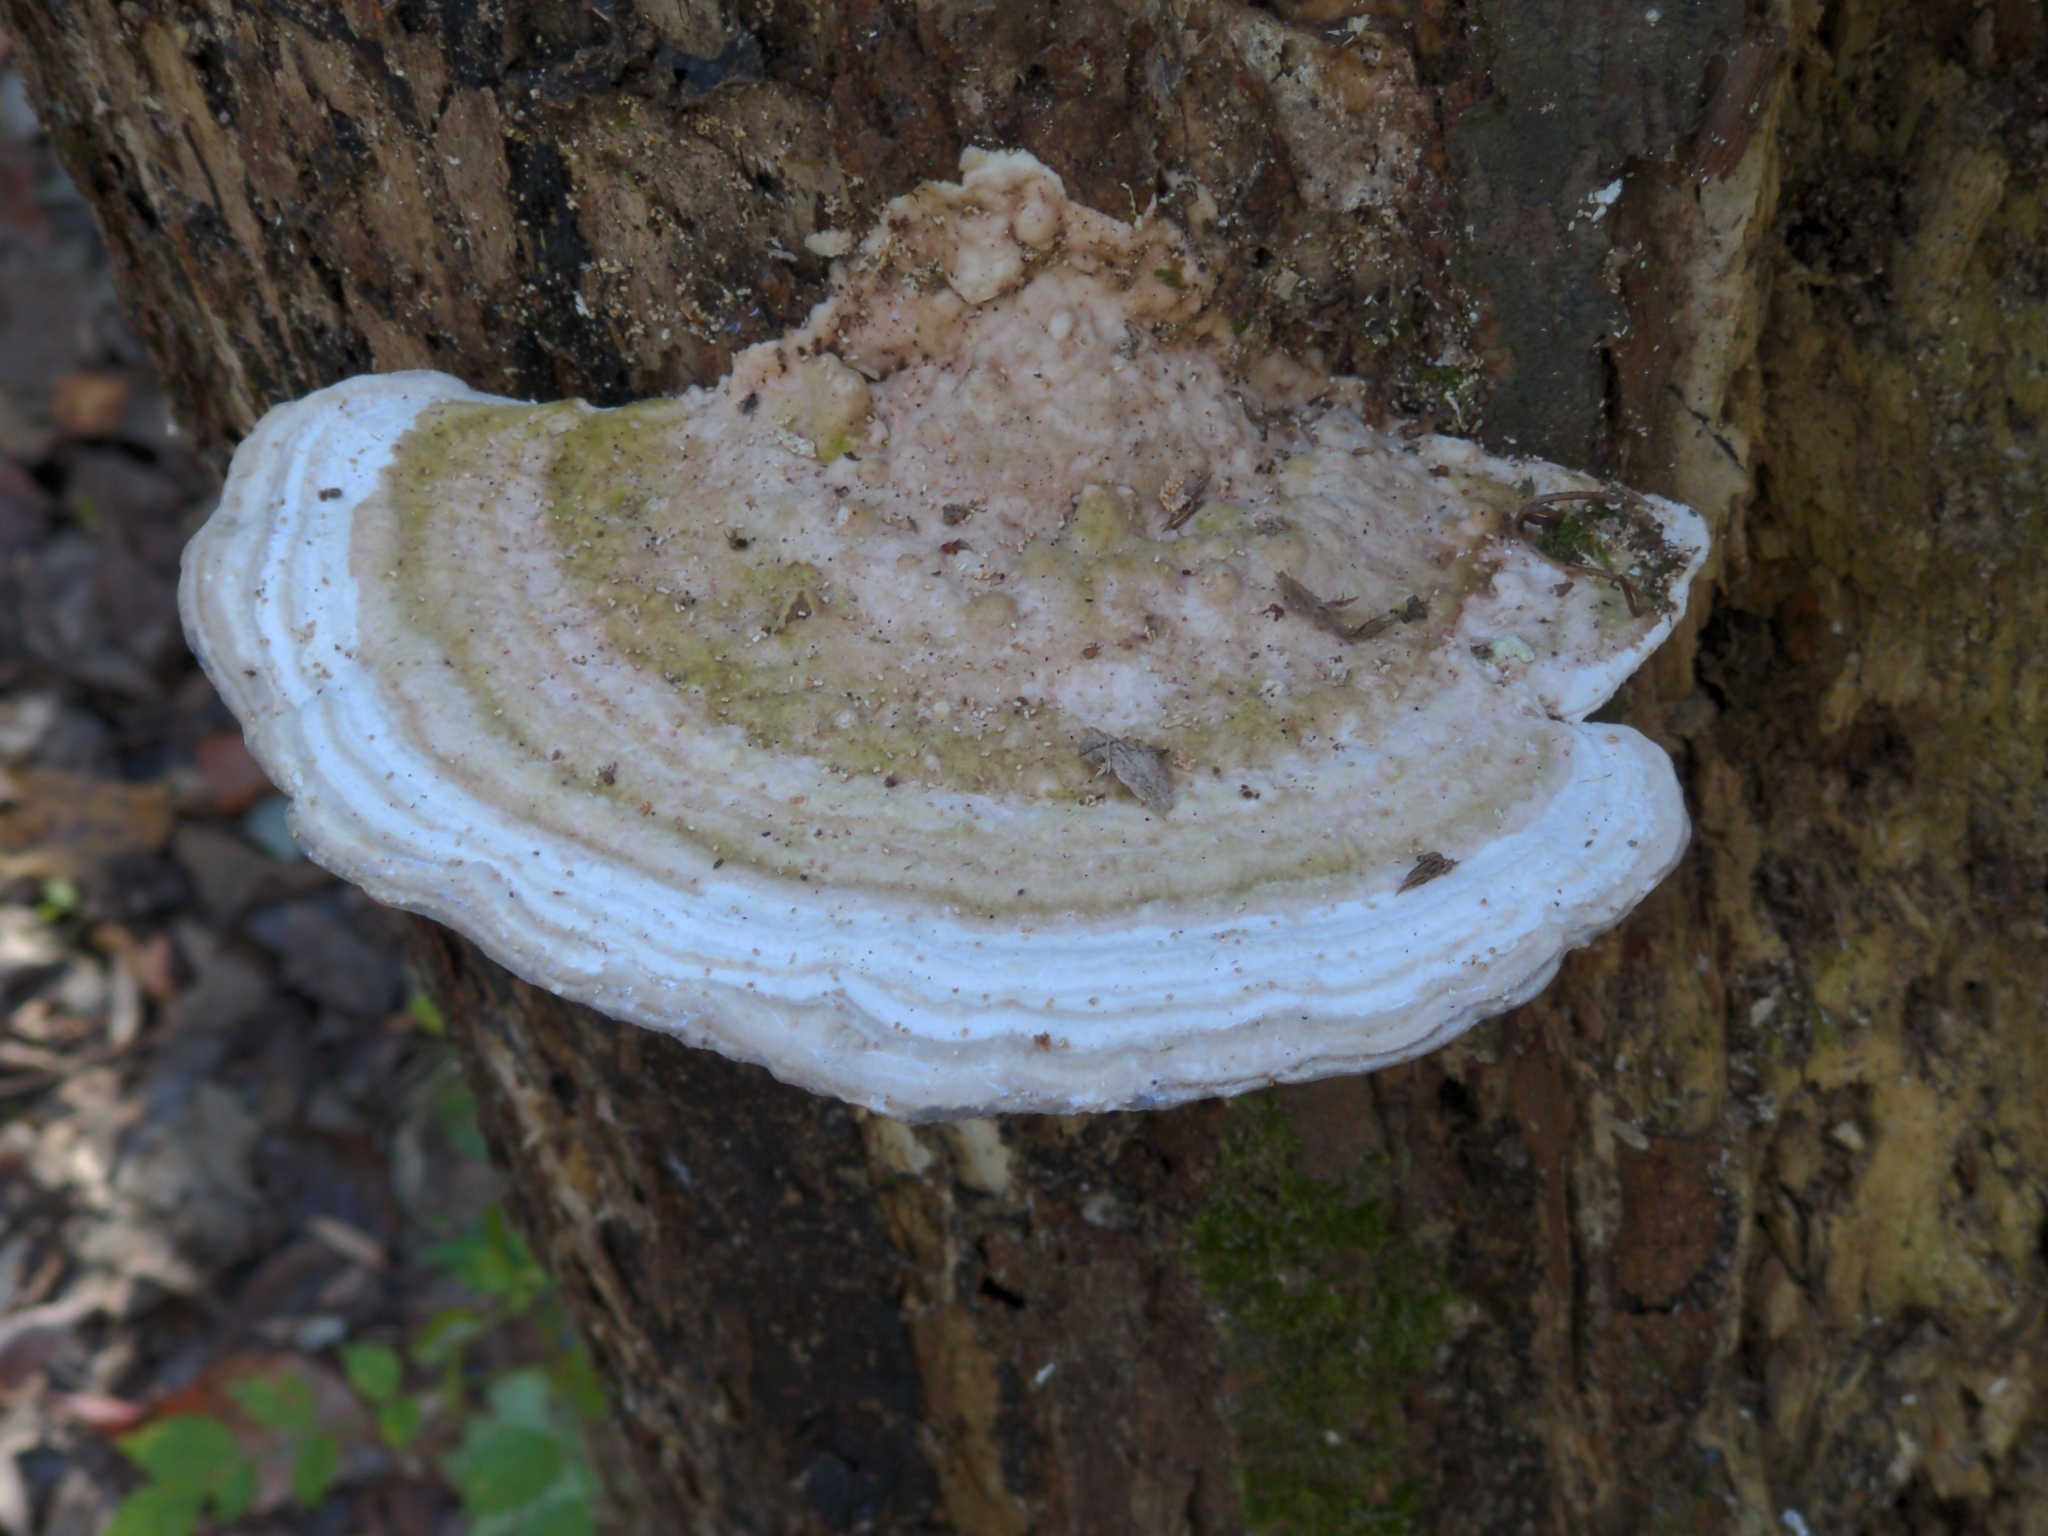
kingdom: Fungi
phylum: Basidiomycota
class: Agaricomycetes
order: Polyporales
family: Polyporaceae
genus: Trametes
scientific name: Trametes gibbosa
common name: Lumpy bracket
